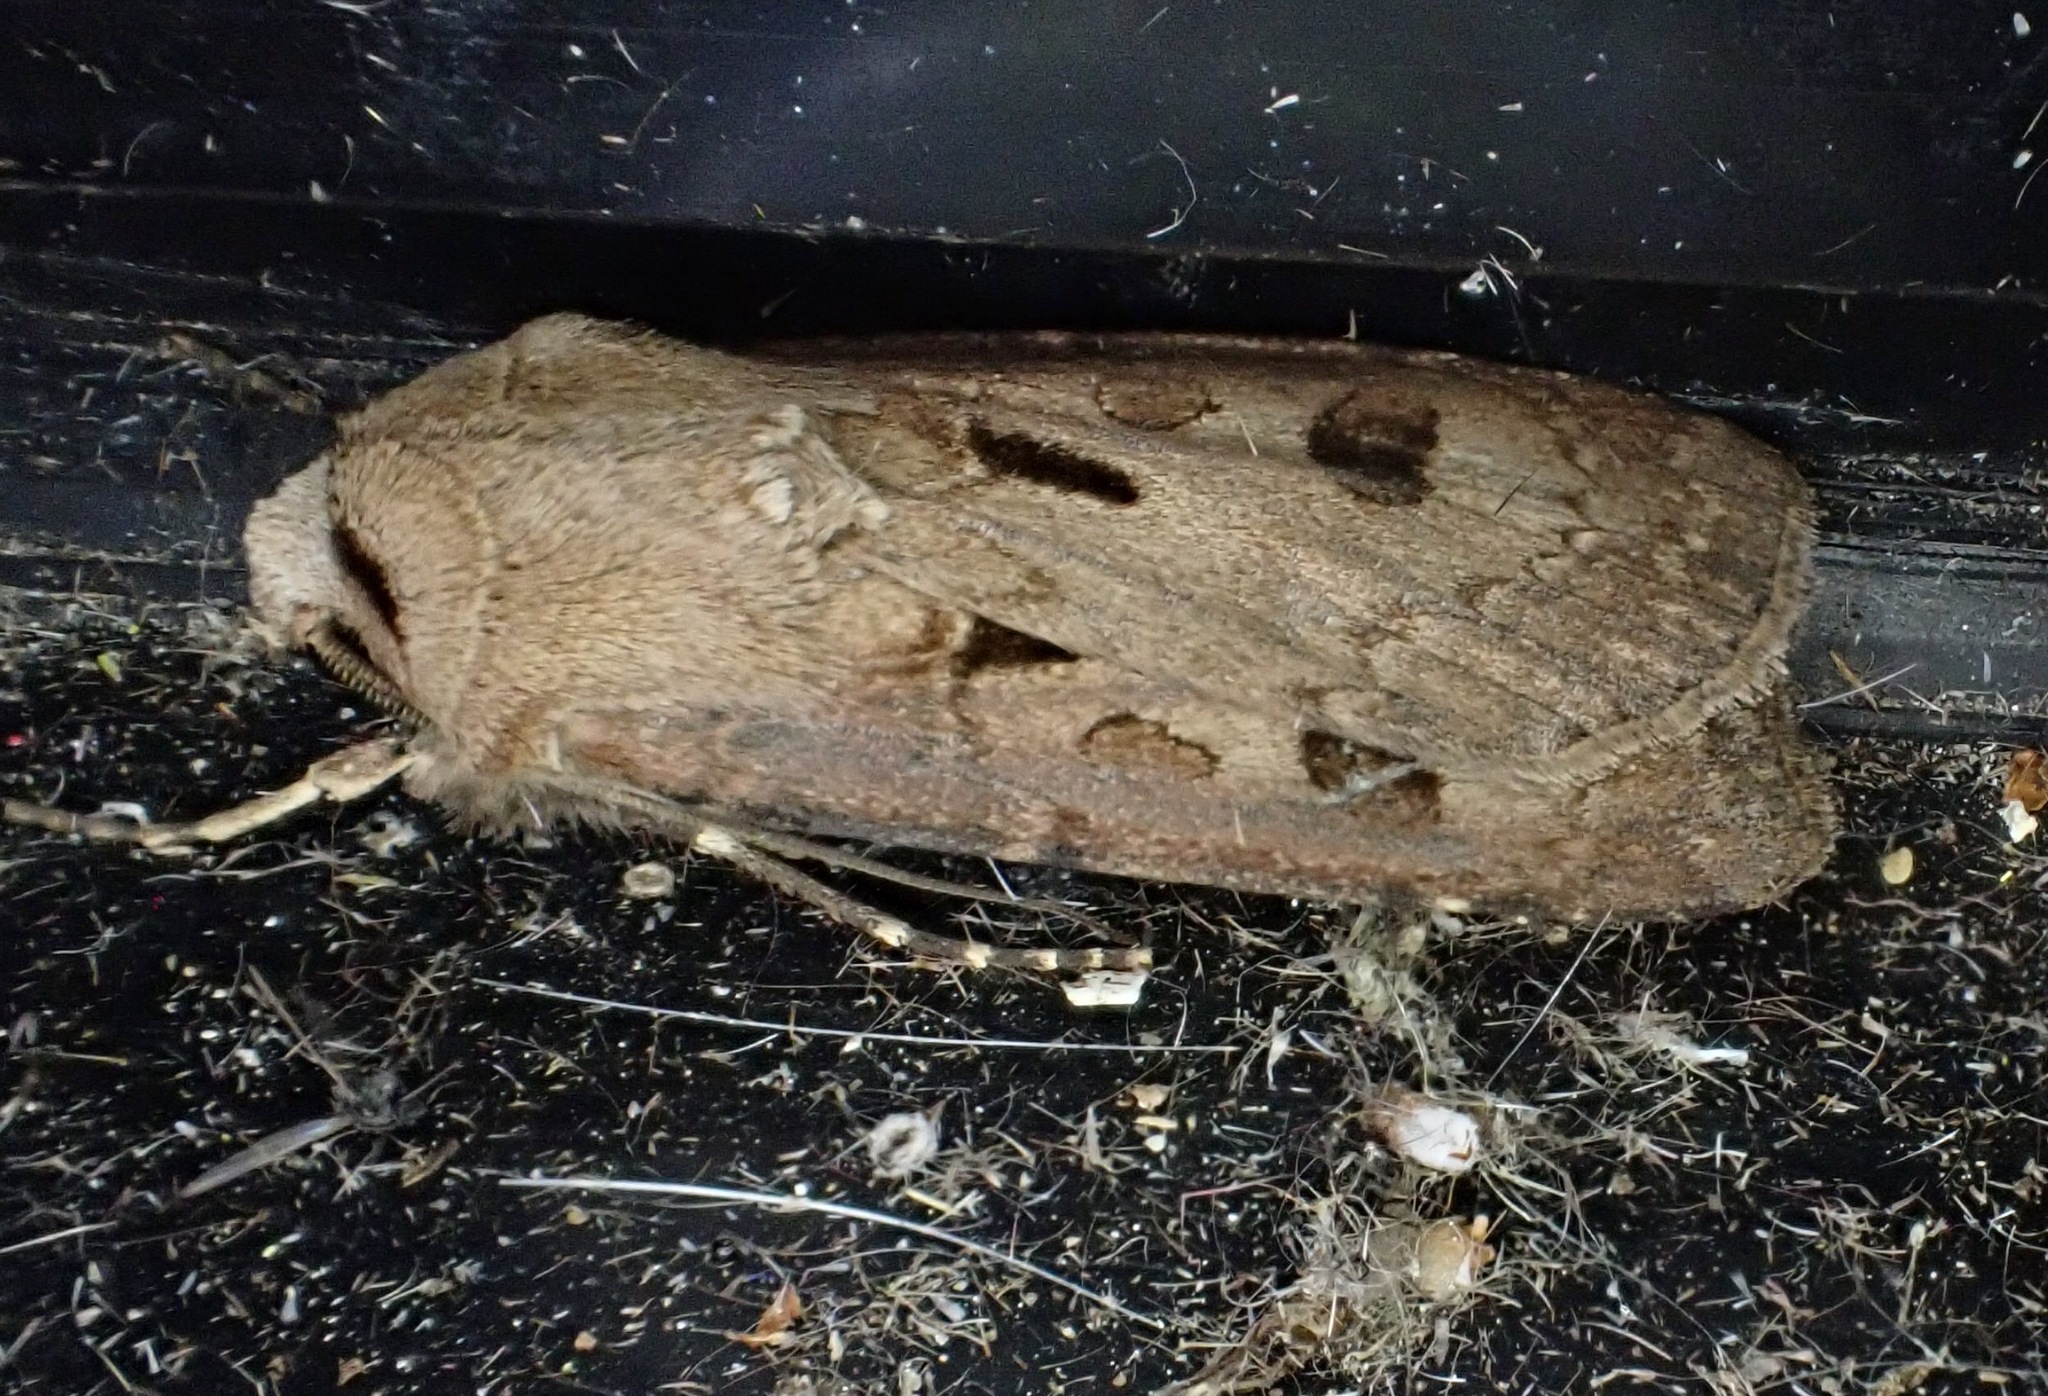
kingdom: Animalia
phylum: Arthropoda
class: Insecta
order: Lepidoptera
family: Noctuidae
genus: Agrotis
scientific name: Agrotis exclamationis
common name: Heart and dart
